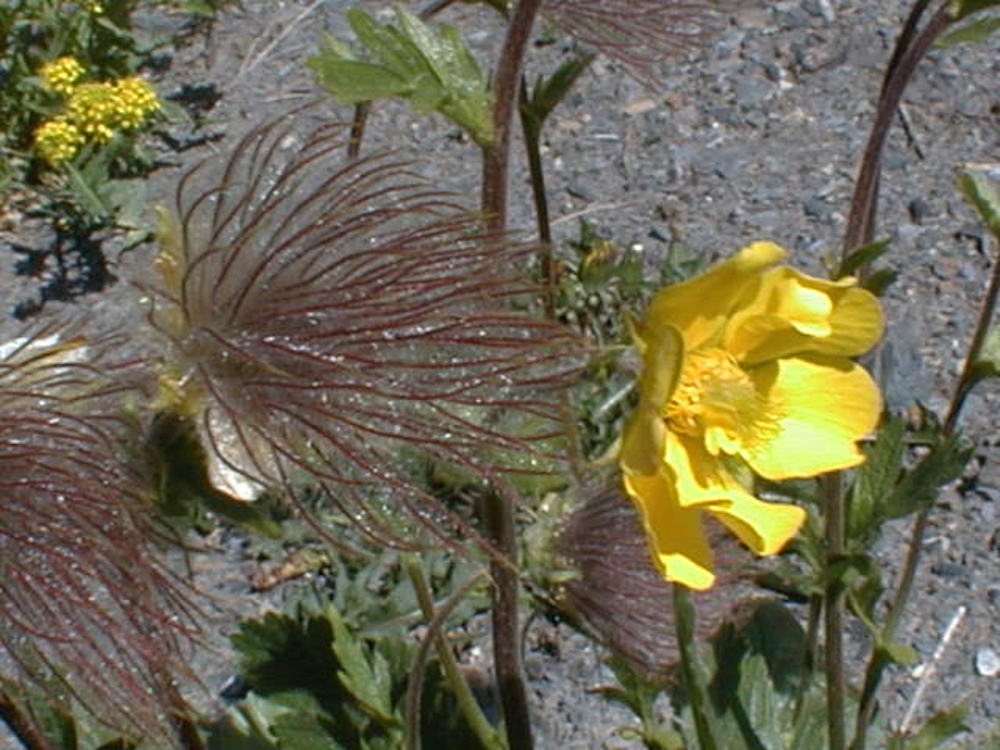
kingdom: Plantae
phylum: Tracheophyta
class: Magnoliopsida
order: Rosales
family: Rosaceae
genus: Geum
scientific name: Geum montanum
